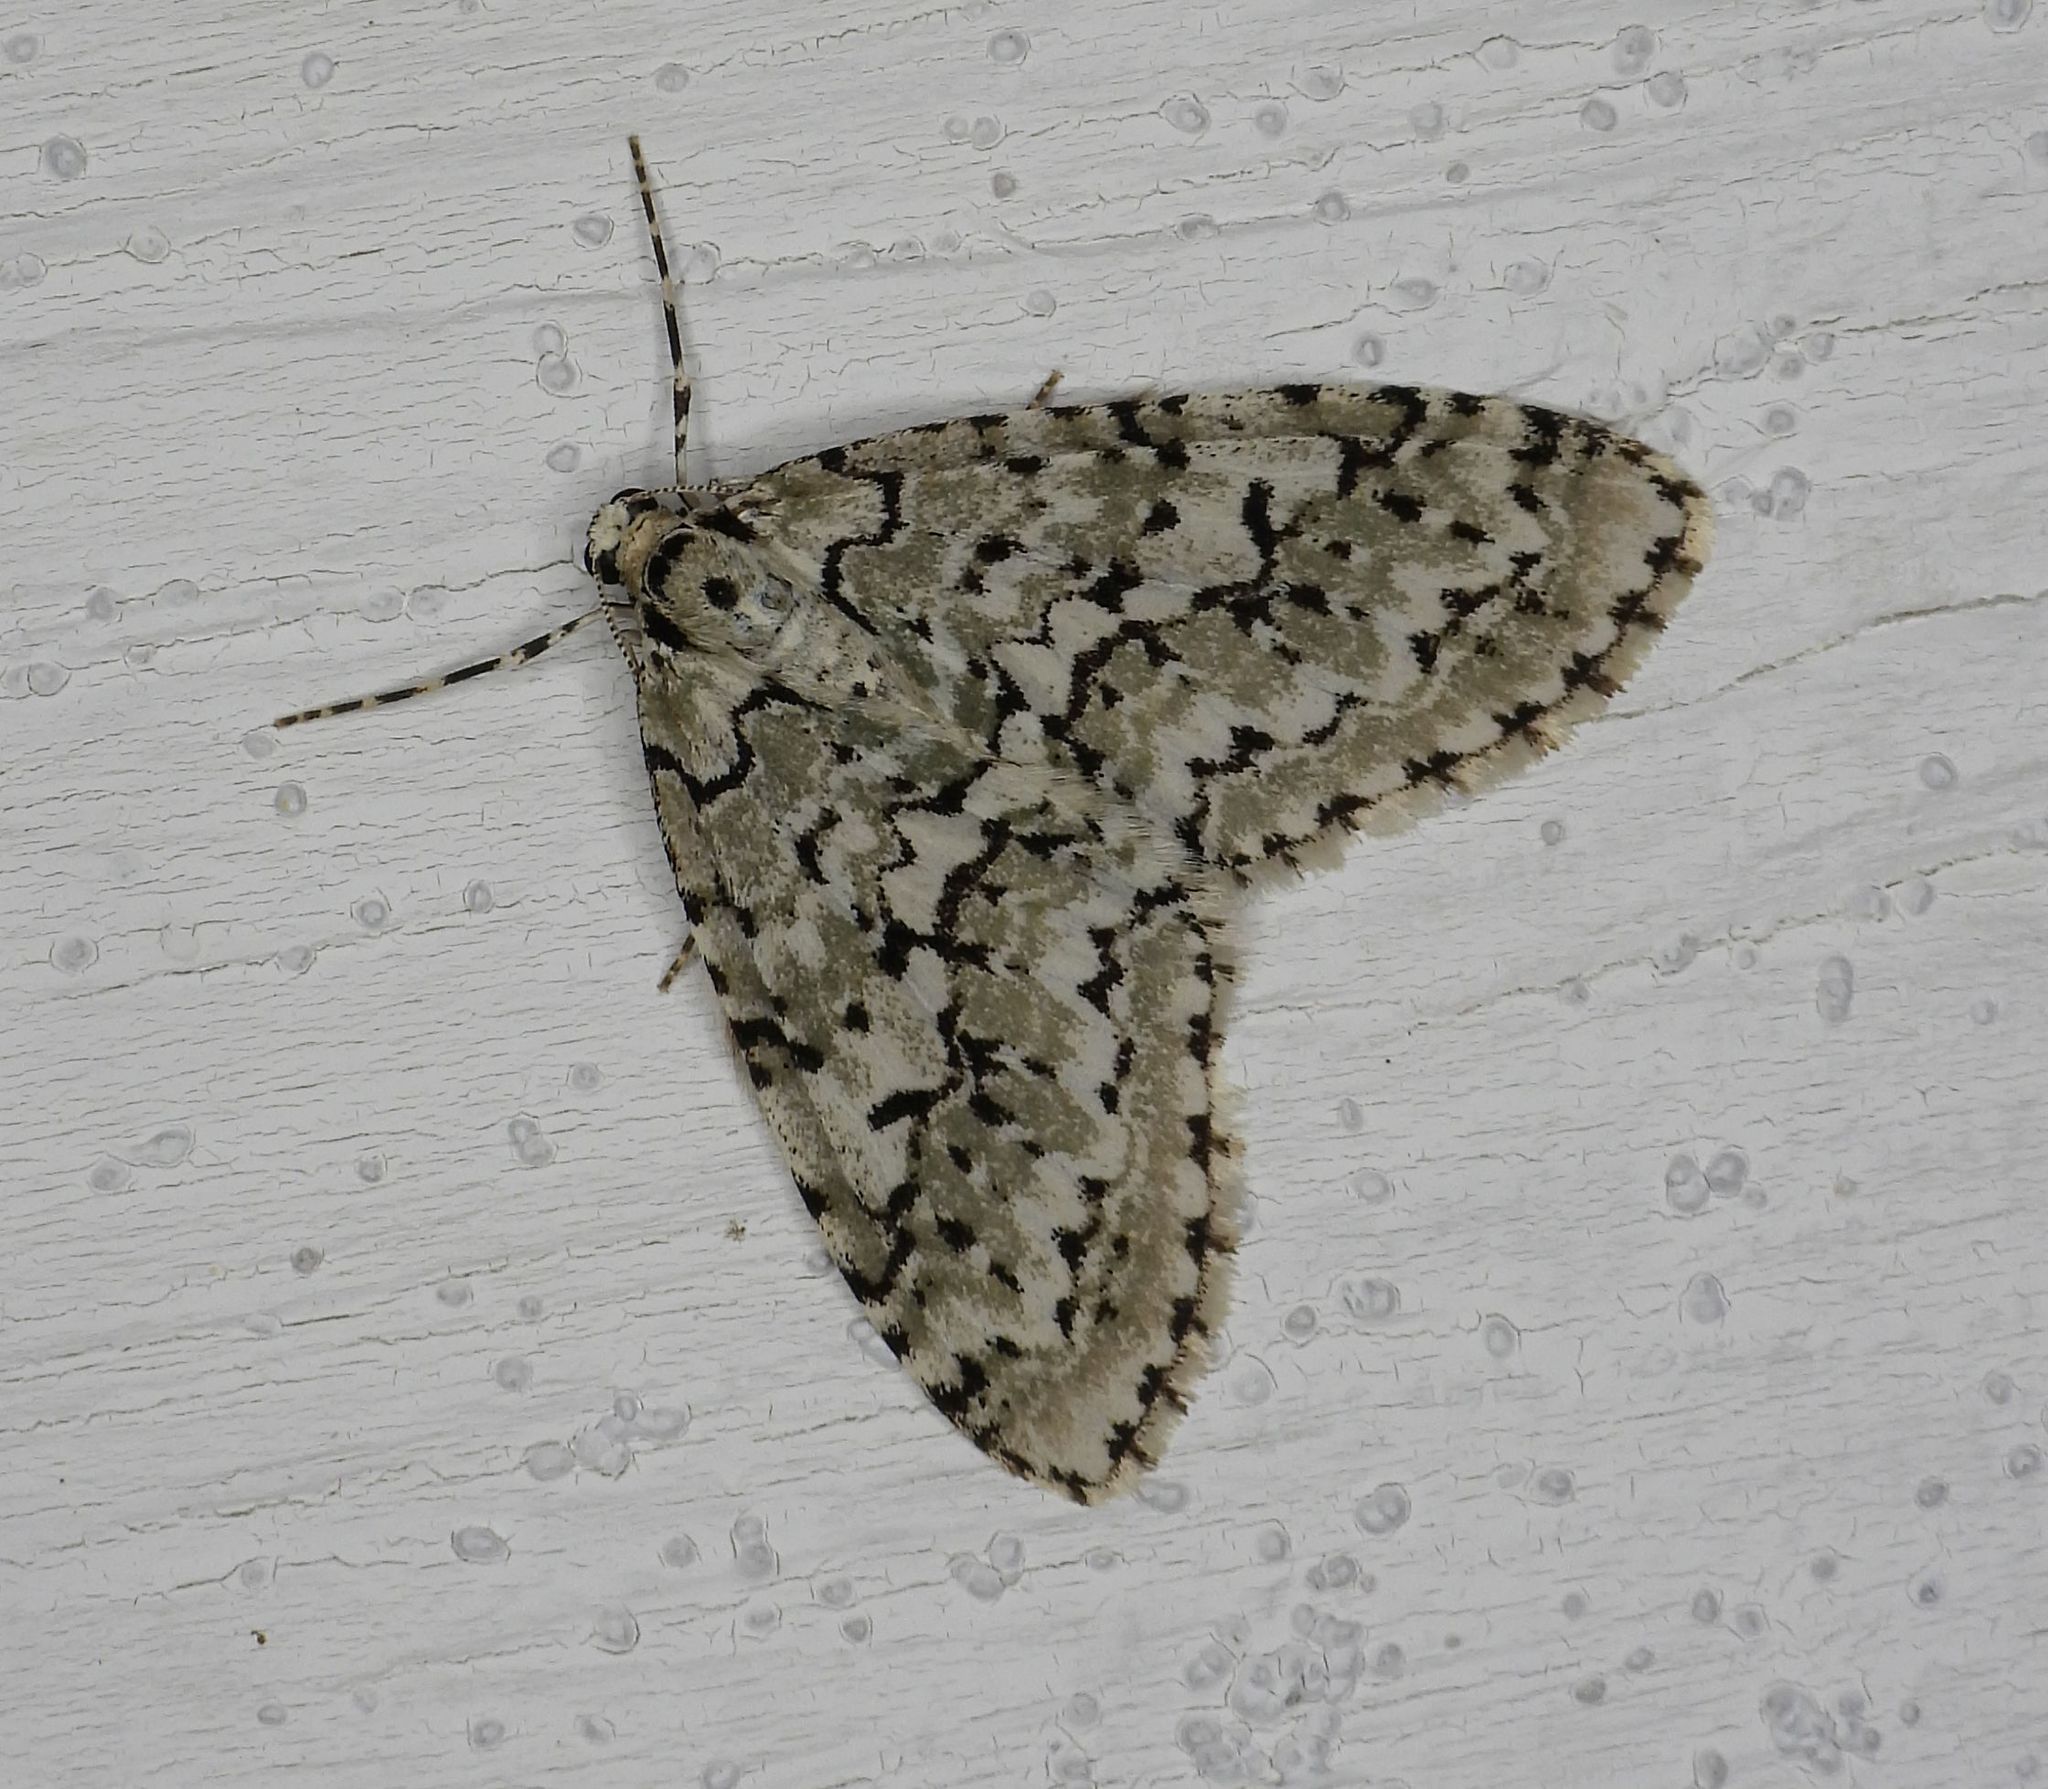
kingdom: Animalia
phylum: Arthropoda
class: Insecta
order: Lepidoptera
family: Geometridae
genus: Cladara
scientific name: Cladara atroliturata
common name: Scribbler
